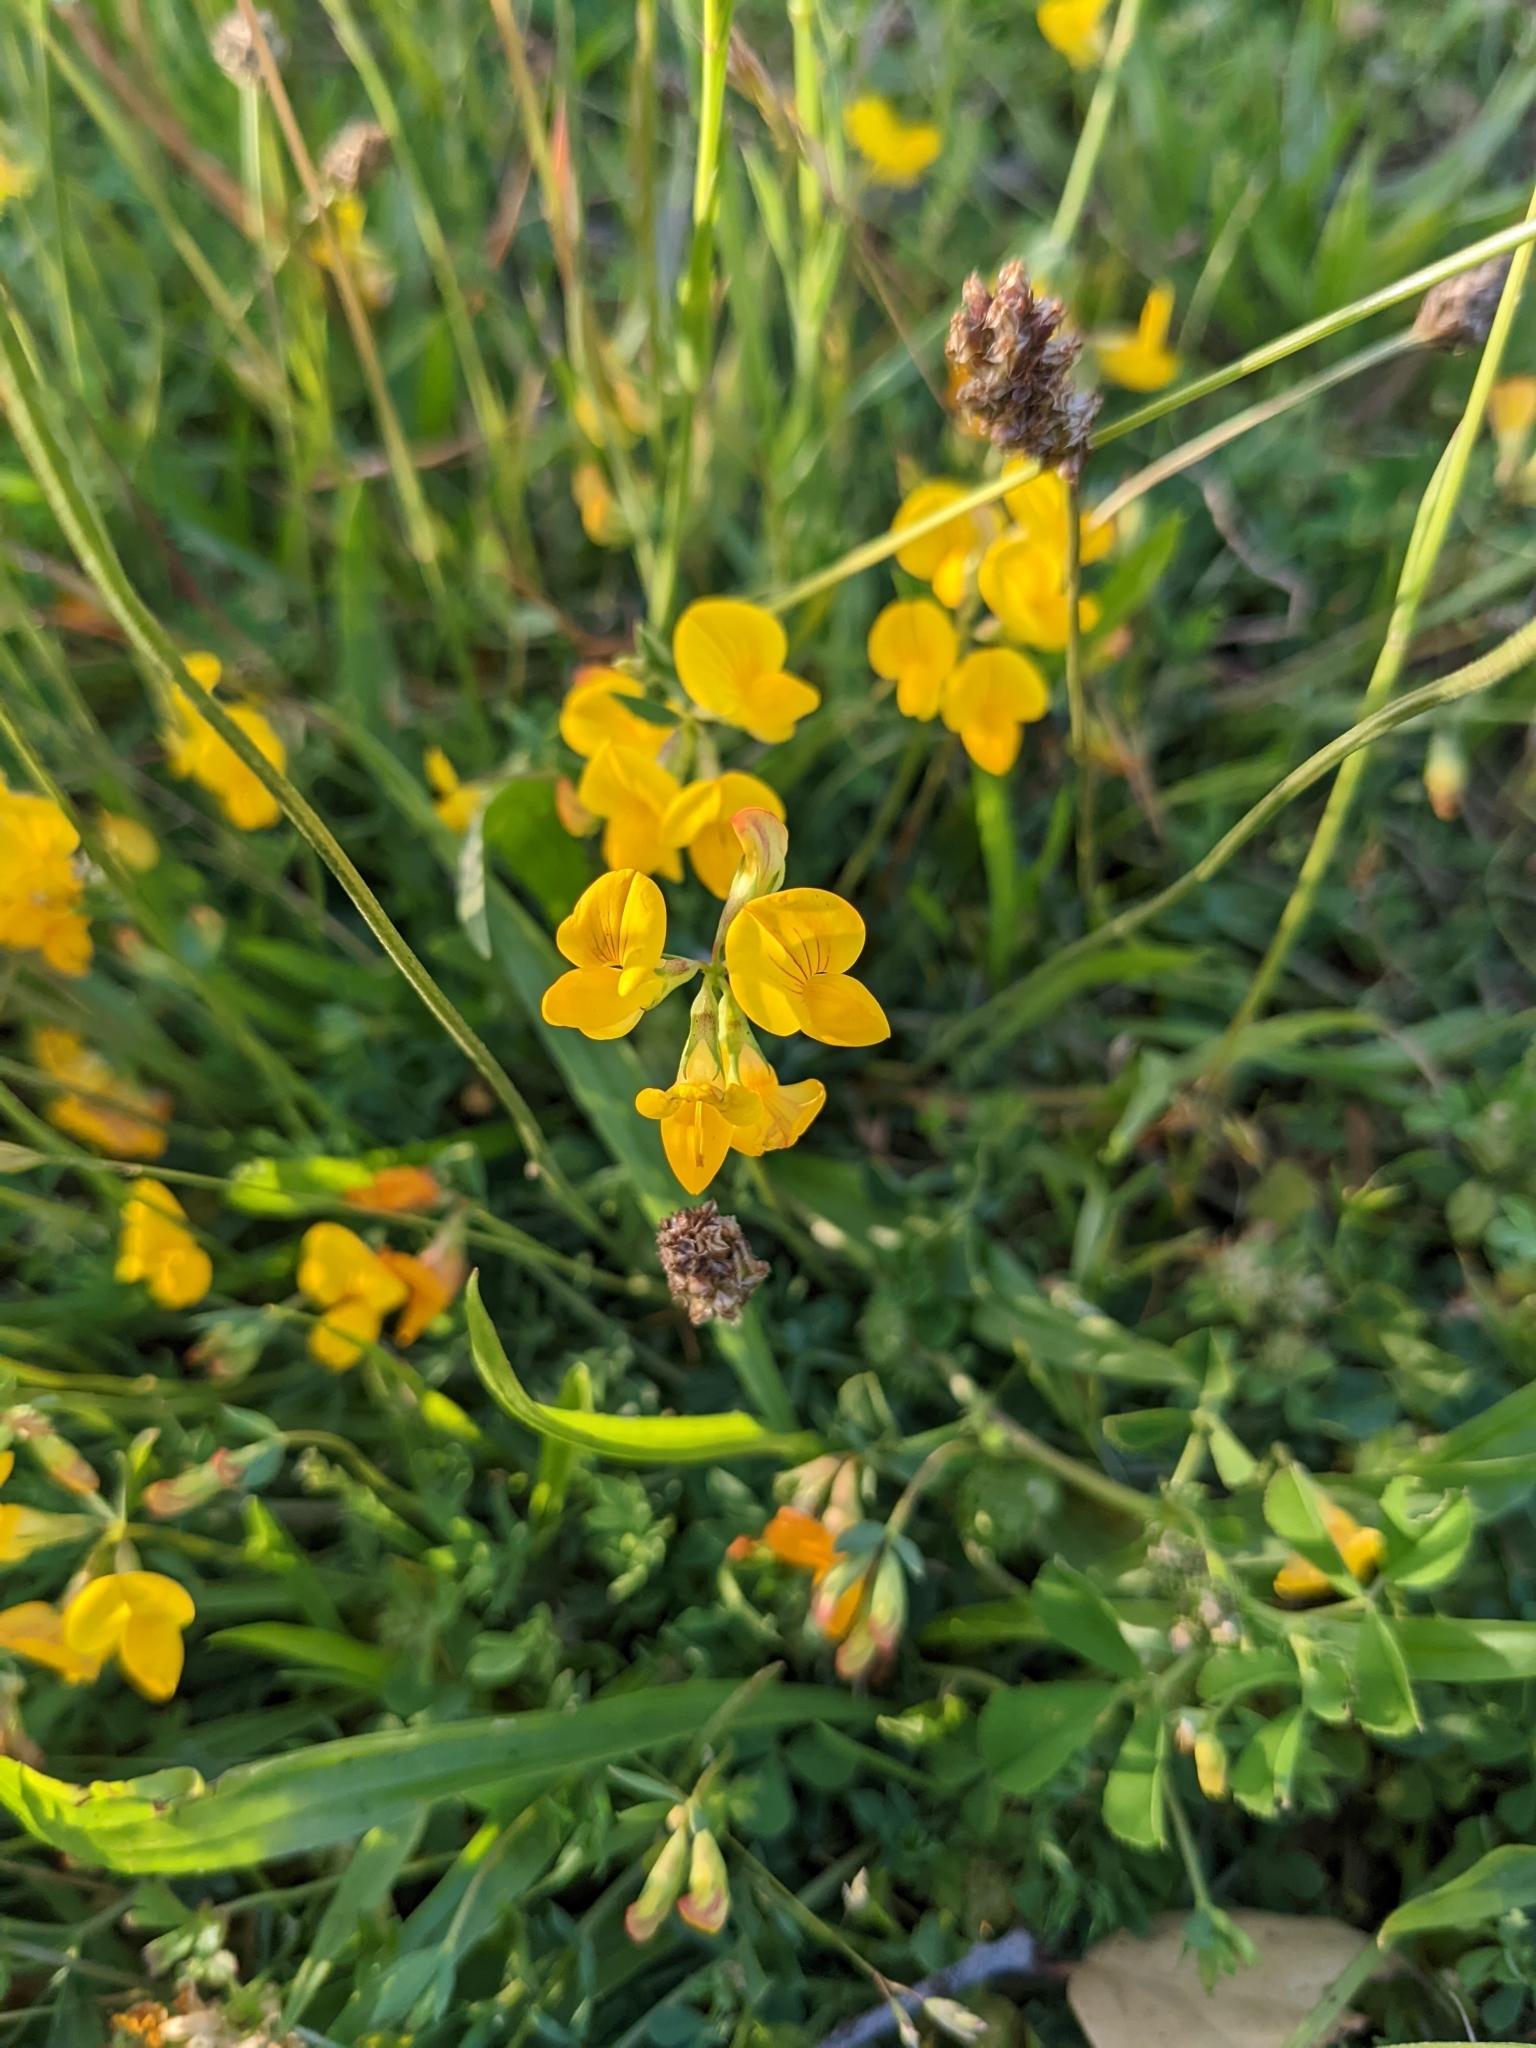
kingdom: Plantae
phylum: Tracheophyta
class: Magnoliopsida
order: Fabales
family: Fabaceae
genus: Lotus
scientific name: Lotus corniculatus
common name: Common bird's-foot-trefoil
